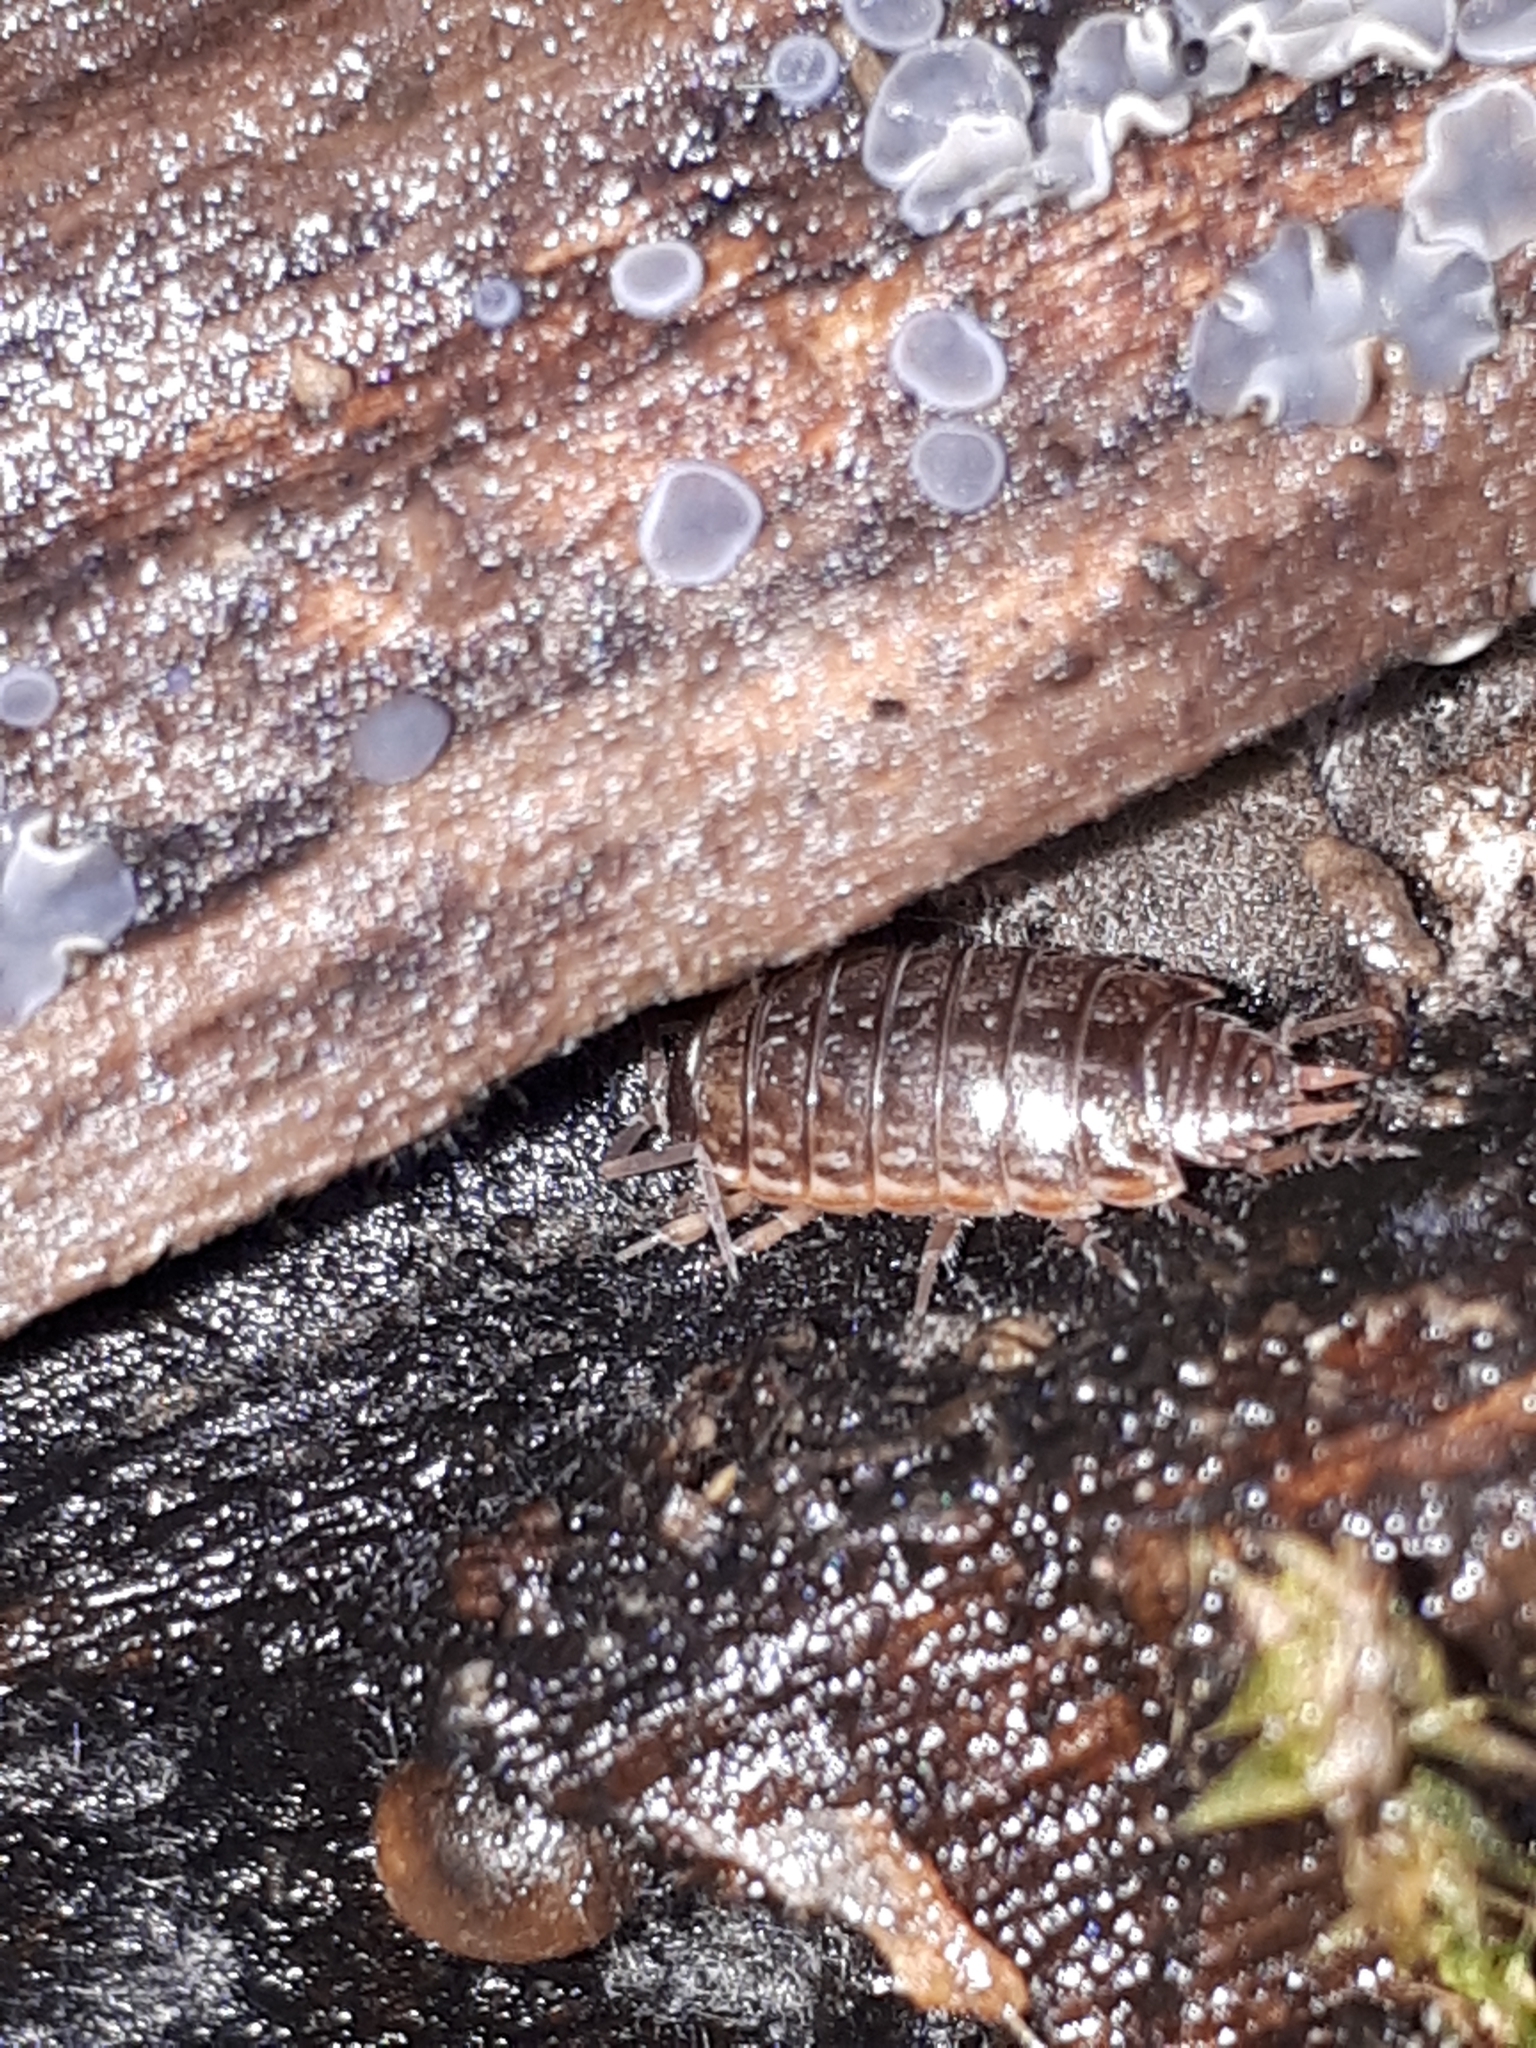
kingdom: Animalia
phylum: Arthropoda
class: Malacostraca
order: Isopoda
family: Philosciidae
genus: Philoscia
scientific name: Philoscia muscorum
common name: Common striped woodlouse
